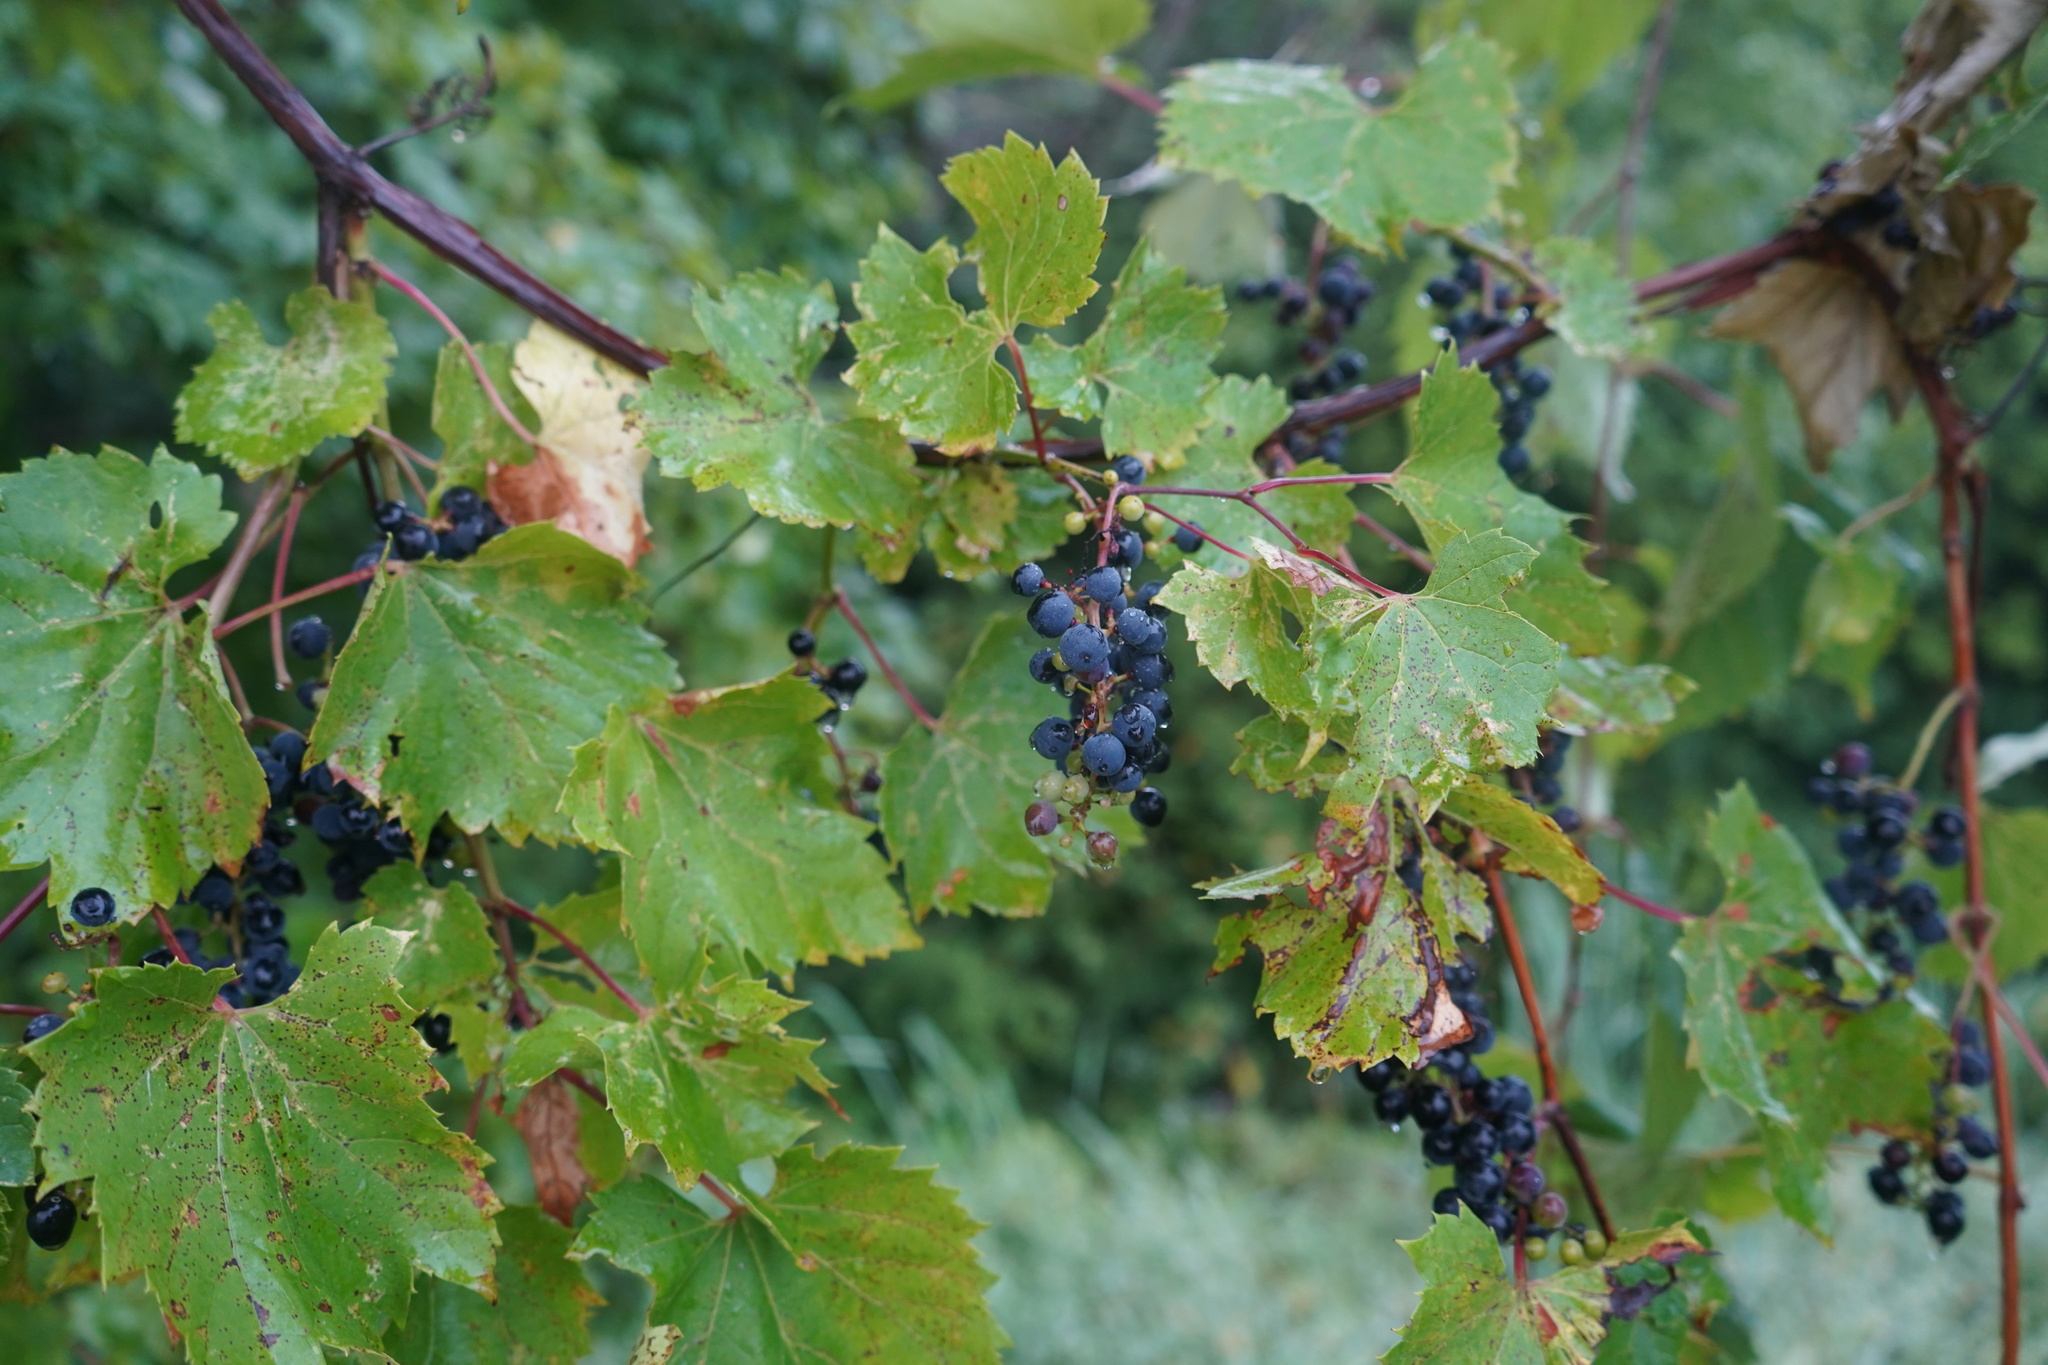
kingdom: Plantae
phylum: Tracheophyta
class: Magnoliopsida
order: Vitales
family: Vitaceae
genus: Vitis
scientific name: Vitis riparia
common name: Frost grape
